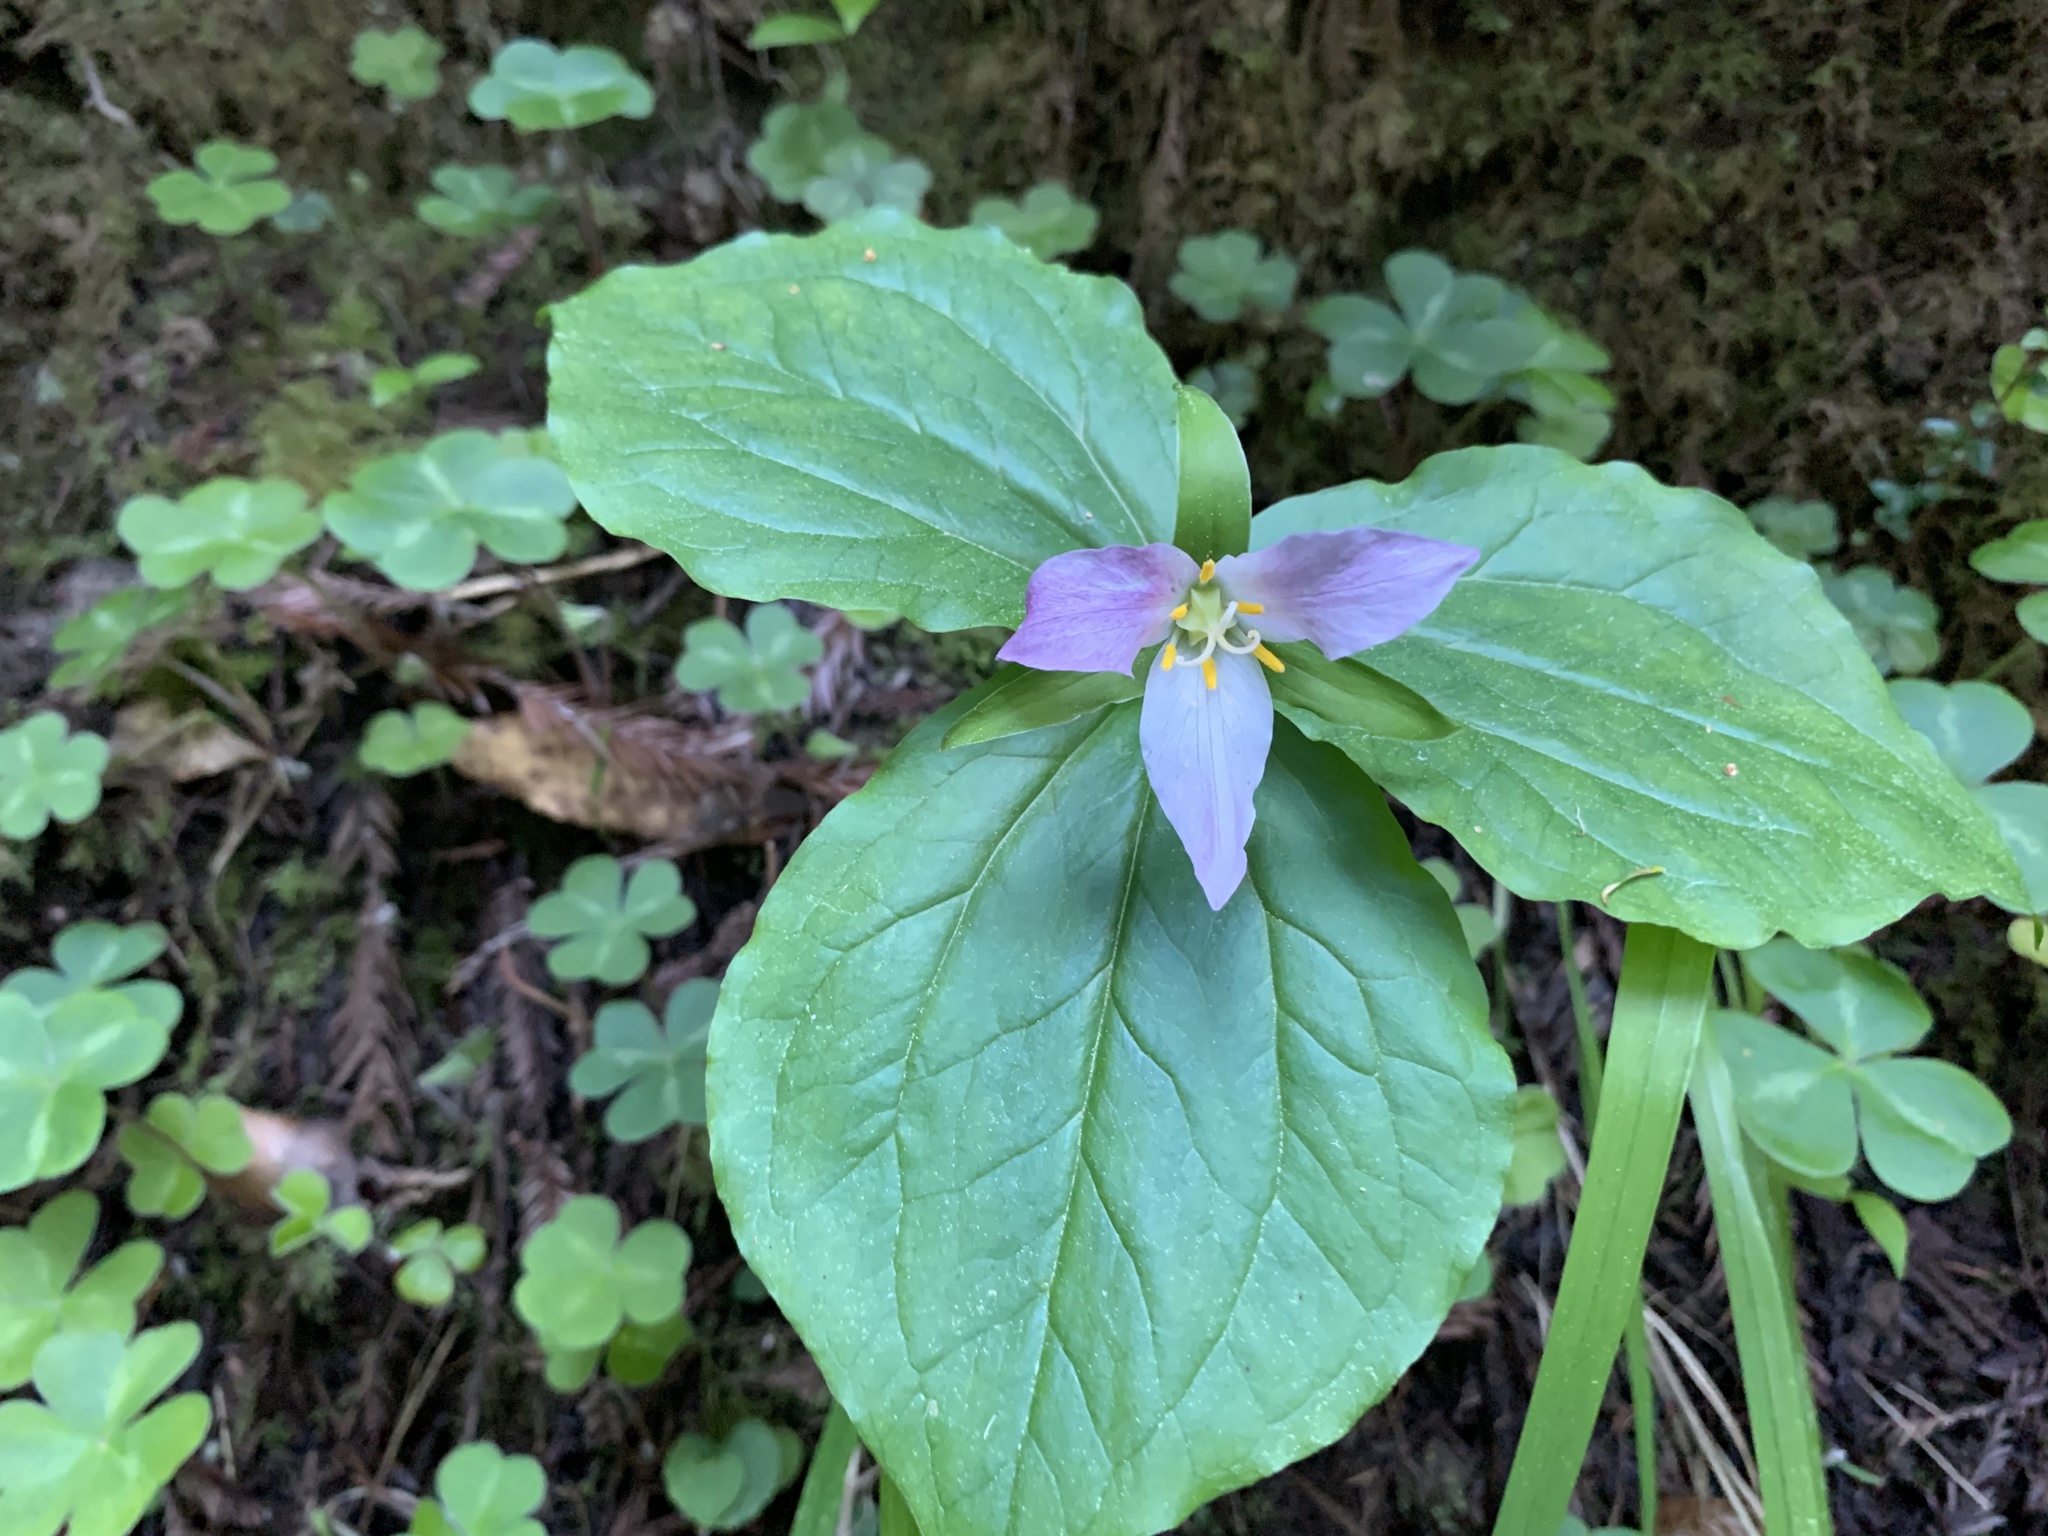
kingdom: Plantae
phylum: Tracheophyta
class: Liliopsida
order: Liliales
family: Melanthiaceae
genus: Trillium
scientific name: Trillium ovatum
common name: Pacific trillium
